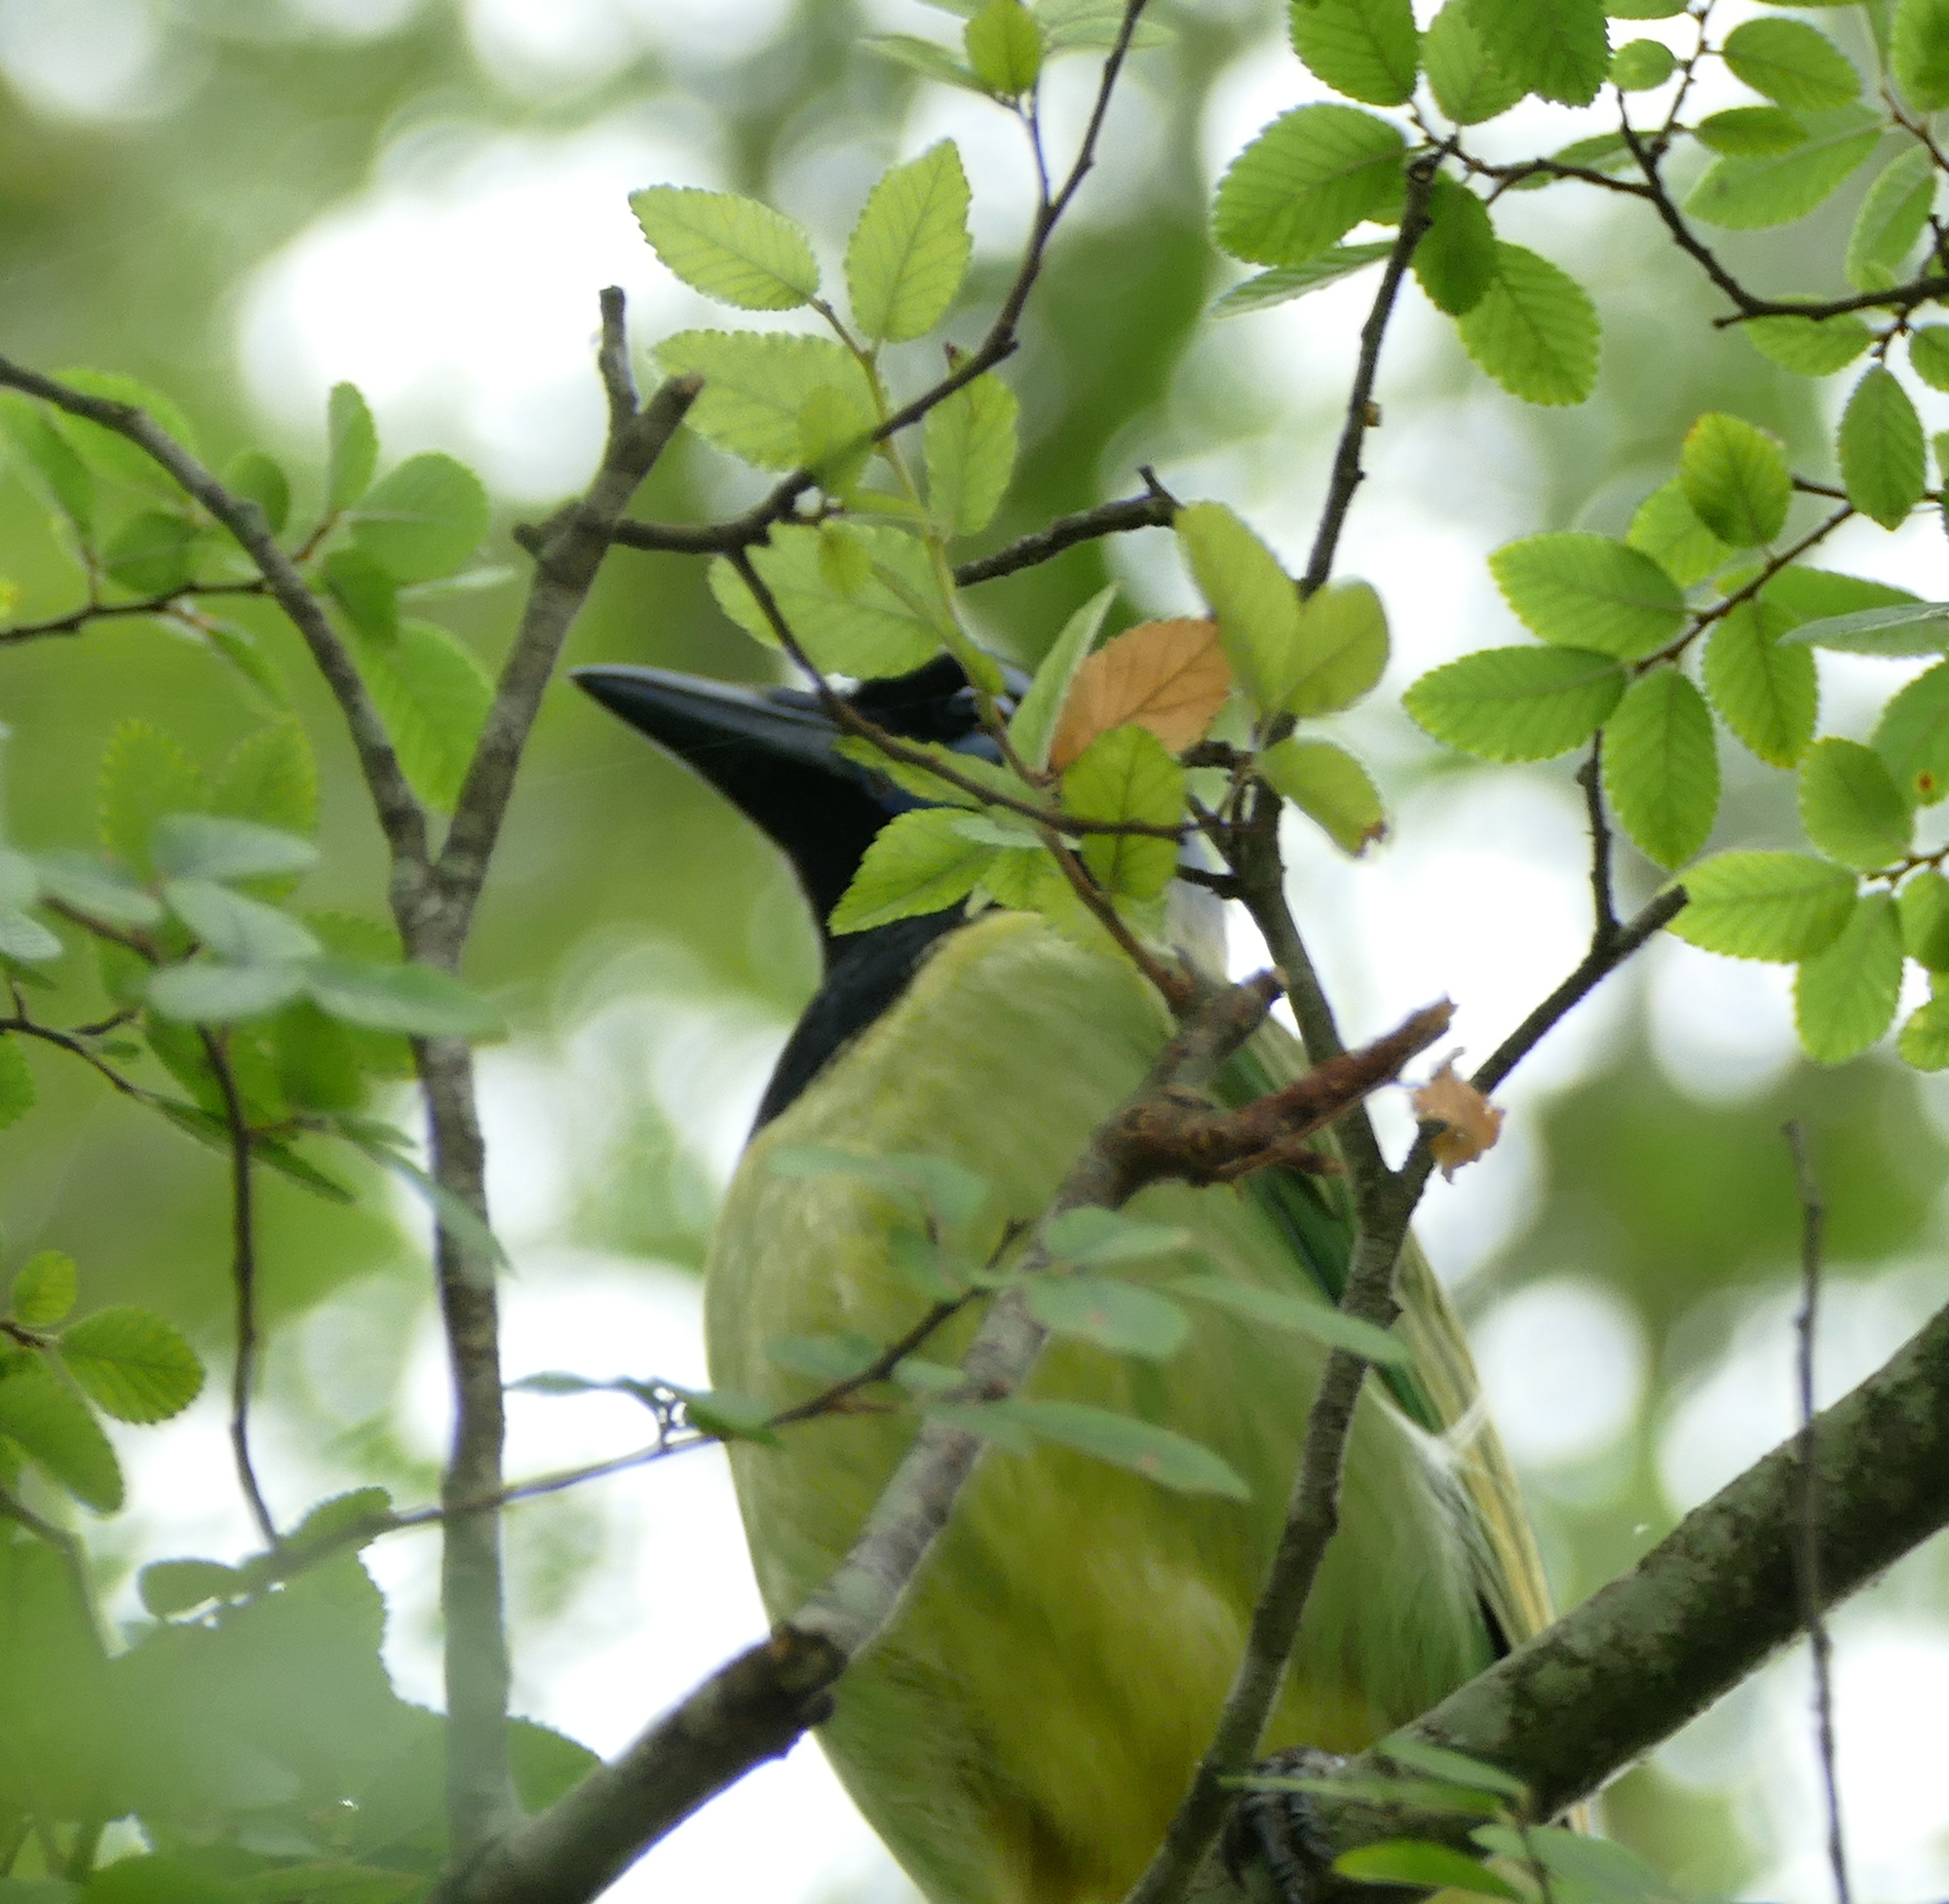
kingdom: Animalia
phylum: Chordata
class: Aves
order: Passeriformes
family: Corvidae
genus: Cyanocorax
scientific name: Cyanocorax yncas
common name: Green jay
